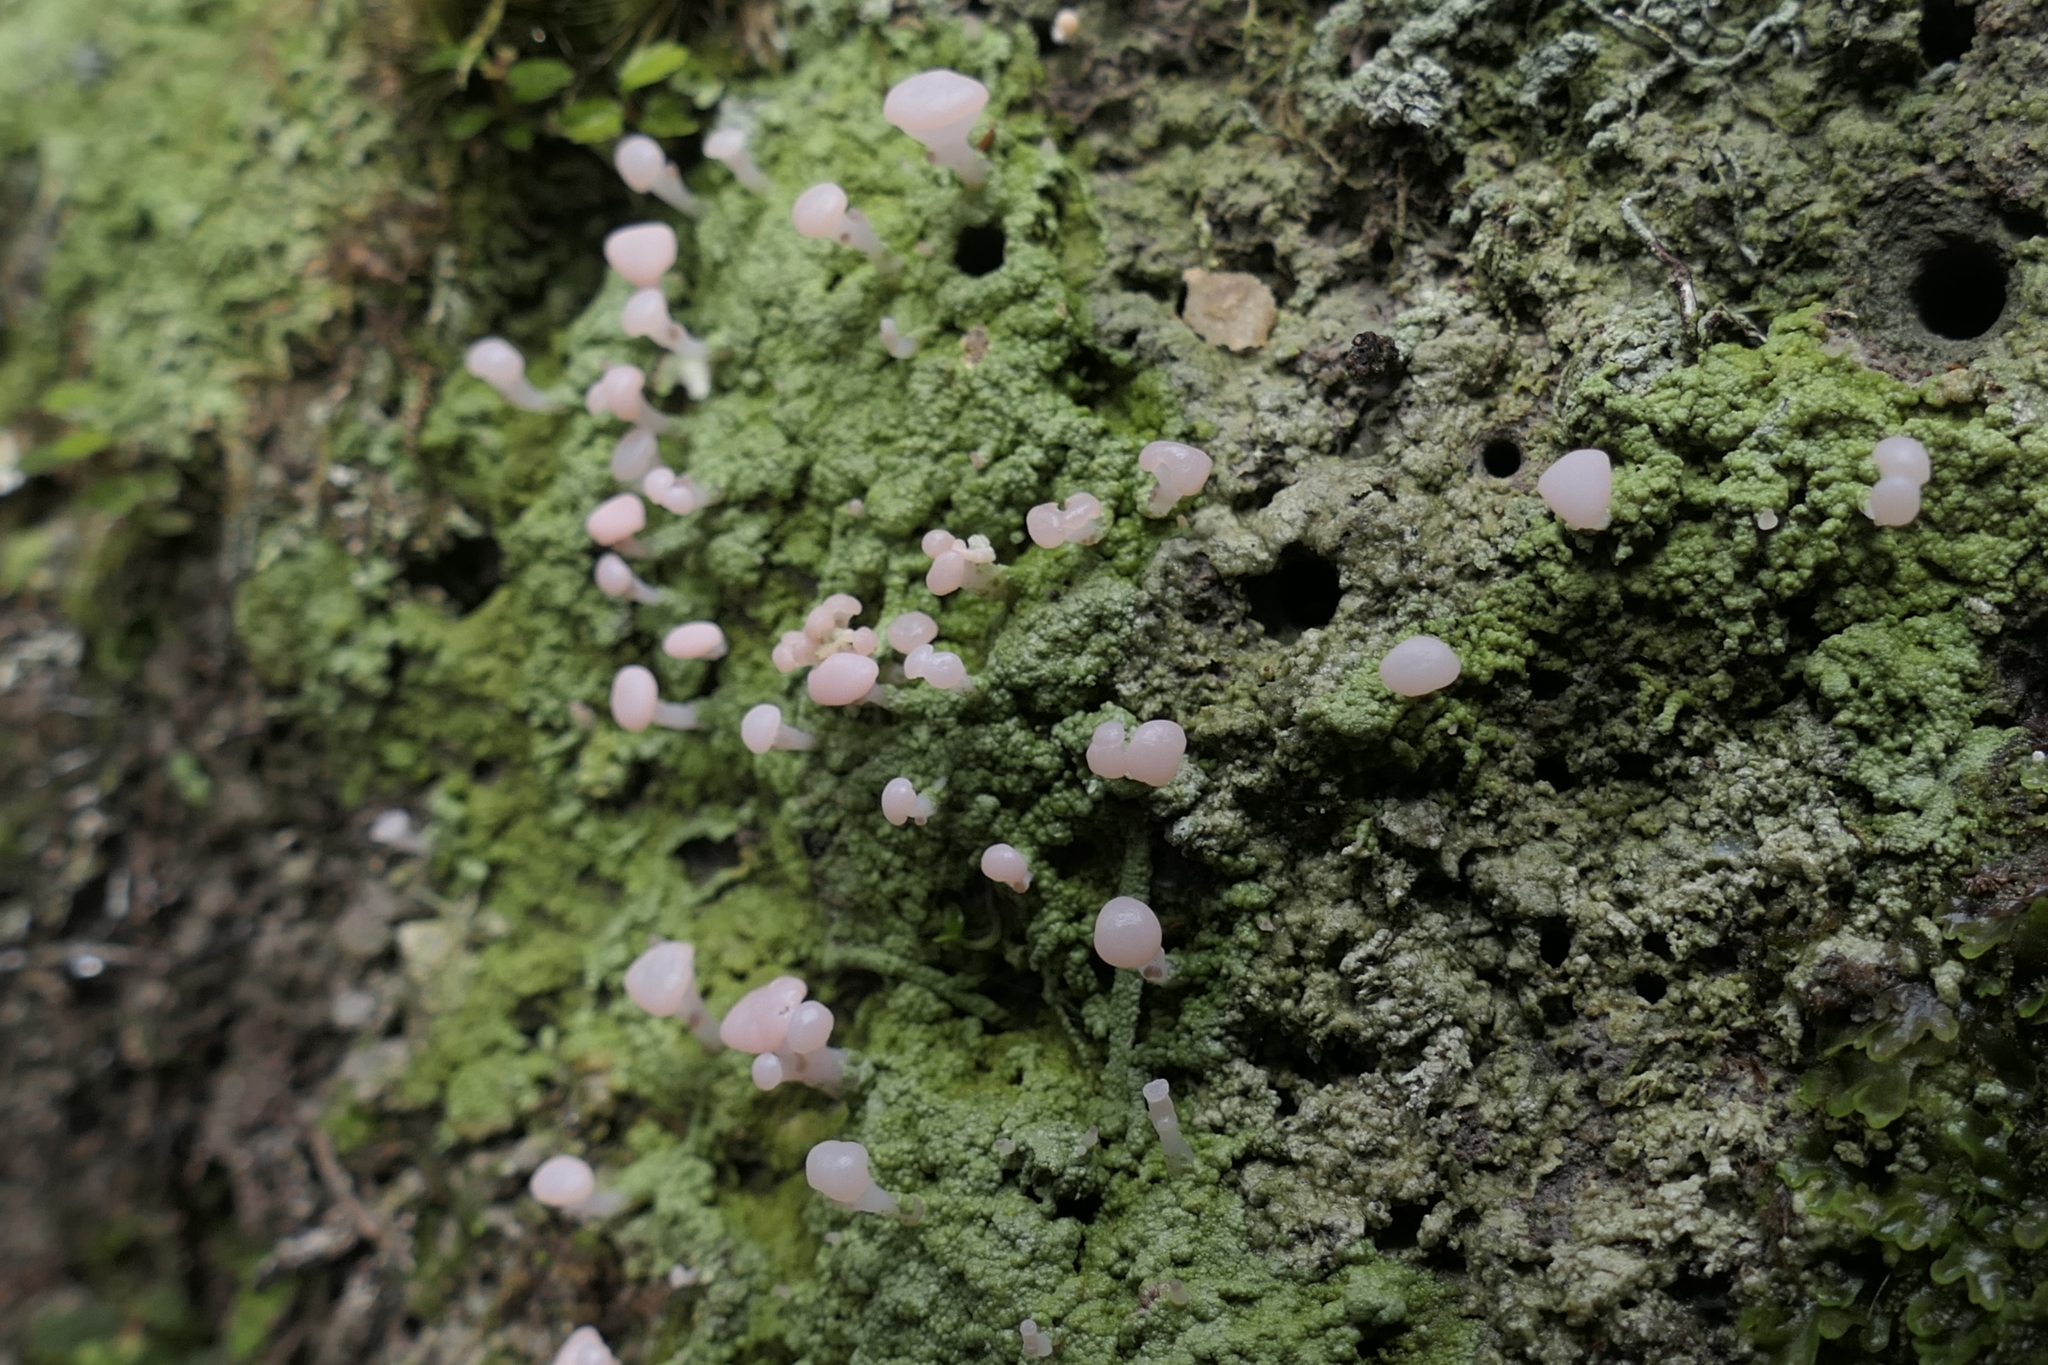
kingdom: Fungi
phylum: Ascomycota
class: Lecanoromycetes
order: Baeomycetales
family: Baeomycetaceae
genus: Baeomyces
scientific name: Baeomyces heteromorphus
